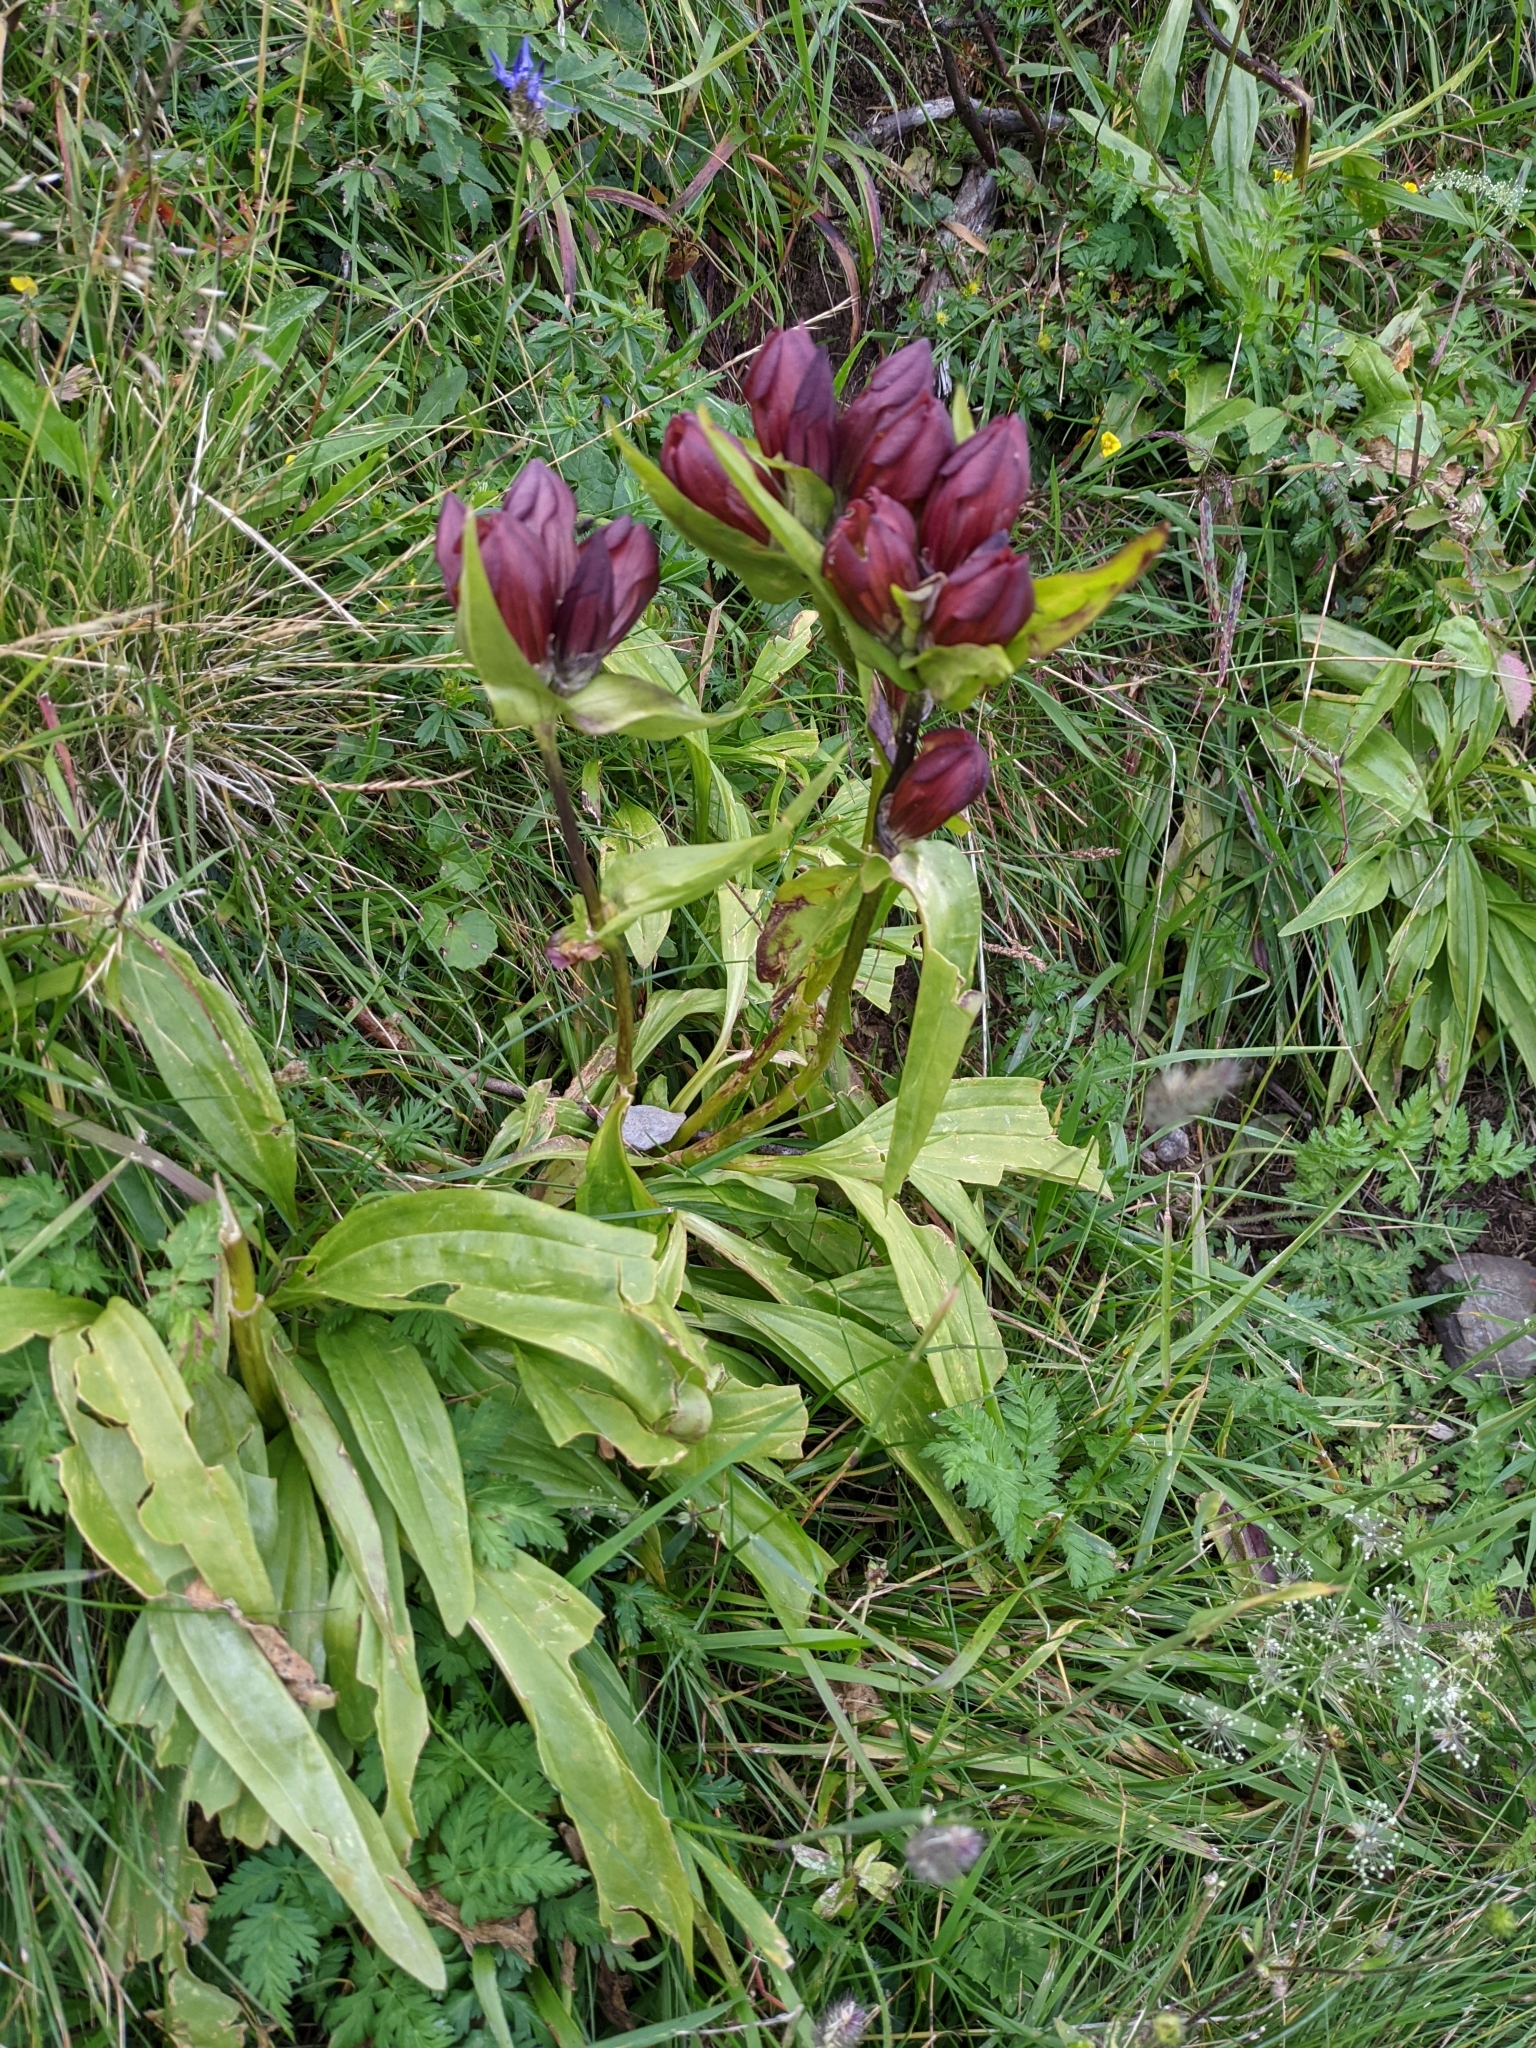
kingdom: Plantae
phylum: Tracheophyta
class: Magnoliopsida
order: Gentianales
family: Gentianaceae
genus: Gentiana
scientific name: Gentiana purpurea
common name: Purple gentian
